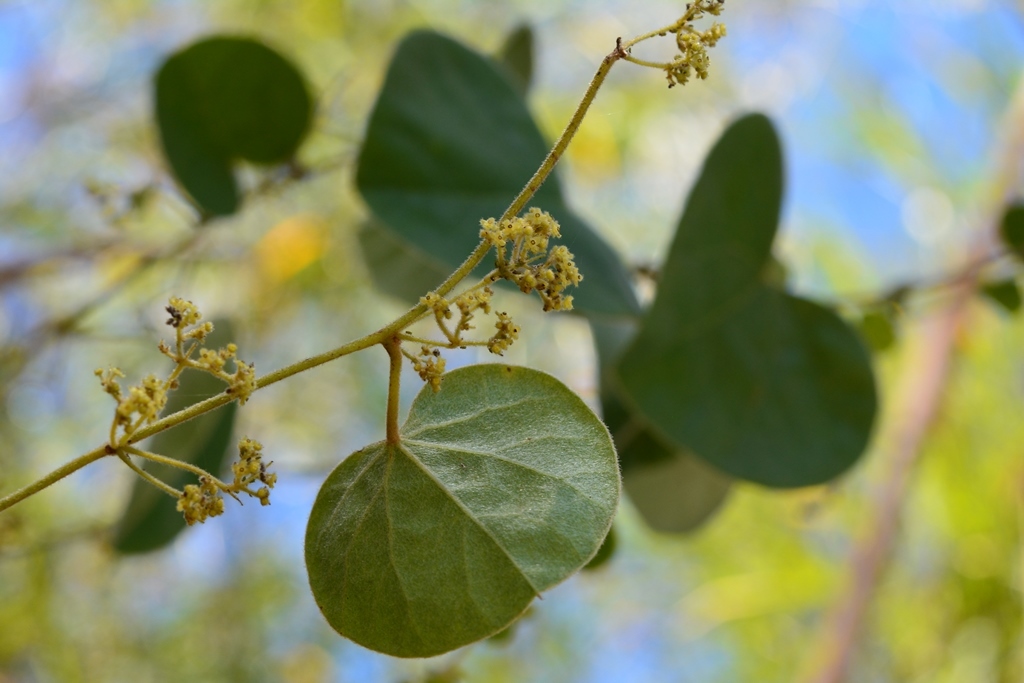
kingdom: Plantae
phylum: Tracheophyta
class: Magnoliopsida
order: Ranunculales
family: Menispermaceae
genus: Cissampelos
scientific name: Cissampelos pareira
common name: Velvetleaf
